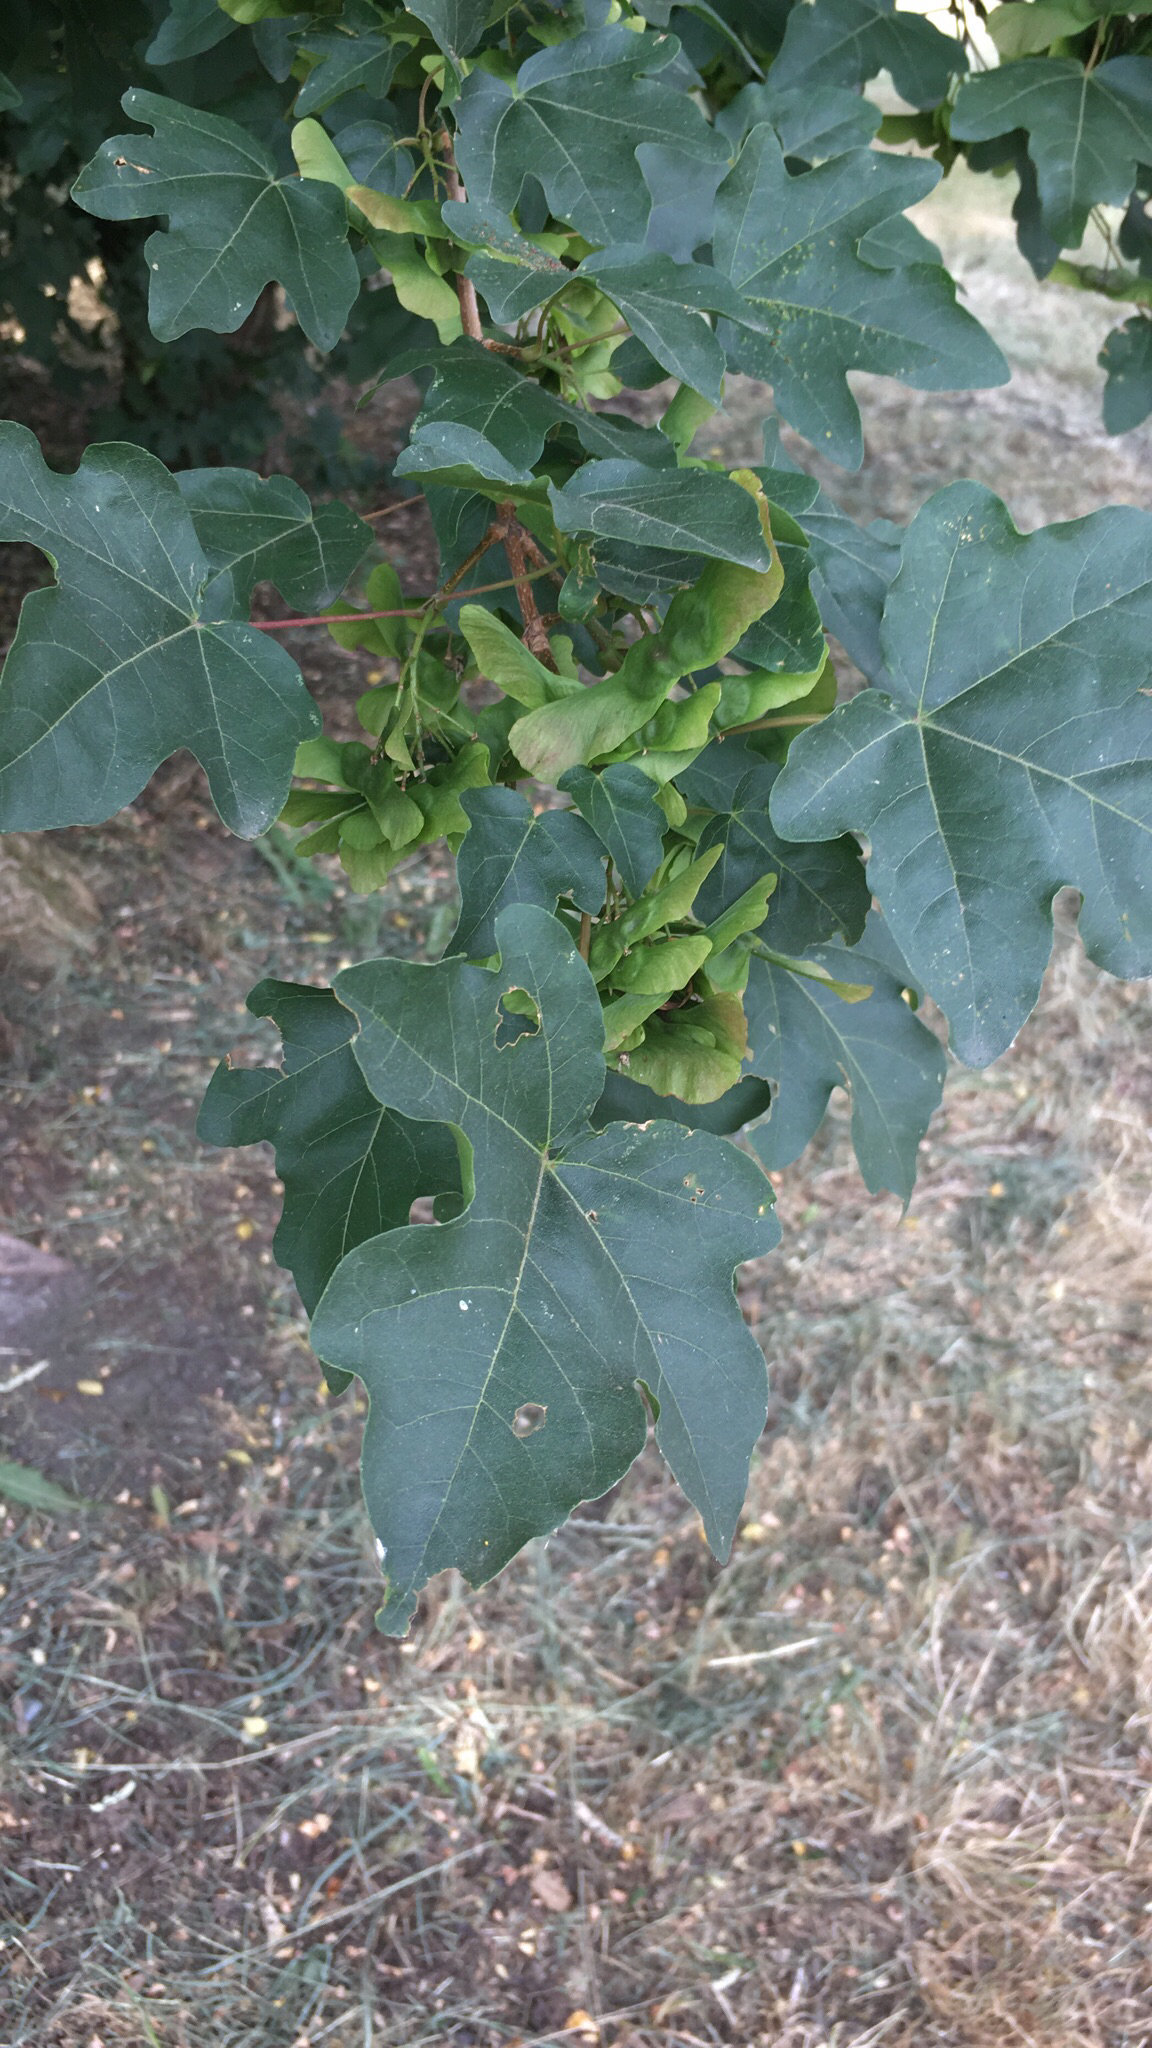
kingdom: Plantae
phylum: Tracheophyta
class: Magnoliopsida
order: Sapindales
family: Sapindaceae
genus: Acer
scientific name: Acer campestre
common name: Field maple
